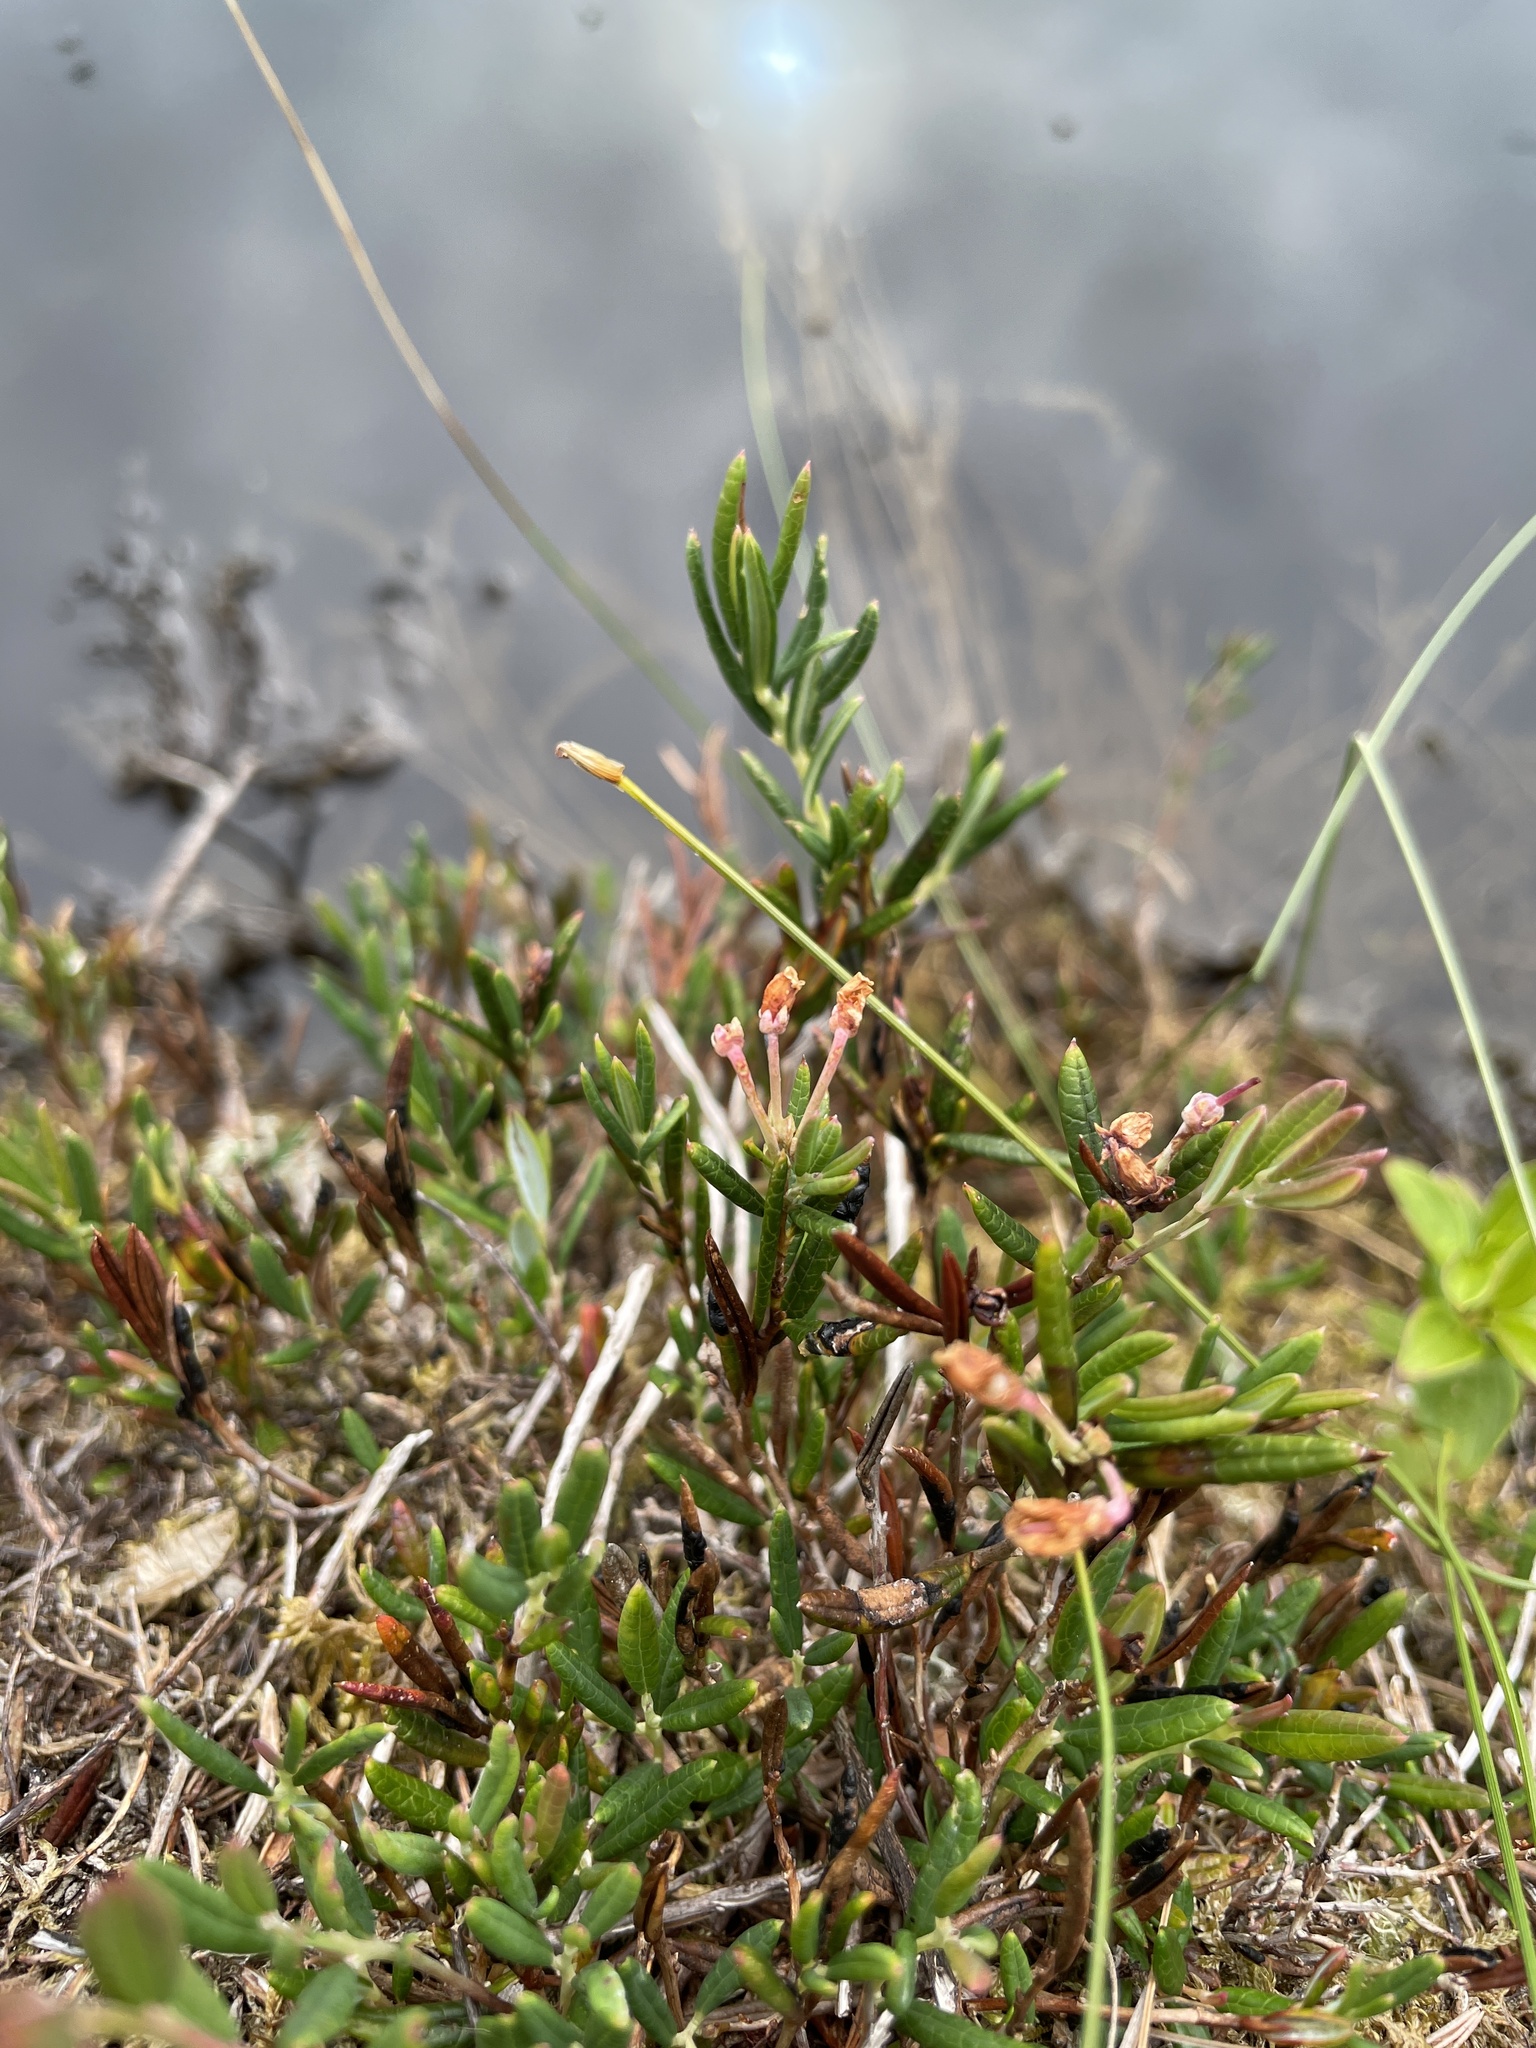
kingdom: Plantae
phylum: Tracheophyta
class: Magnoliopsida
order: Ericales
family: Ericaceae
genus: Andromeda
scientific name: Andromeda polifolia
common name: Bog-rosemary
